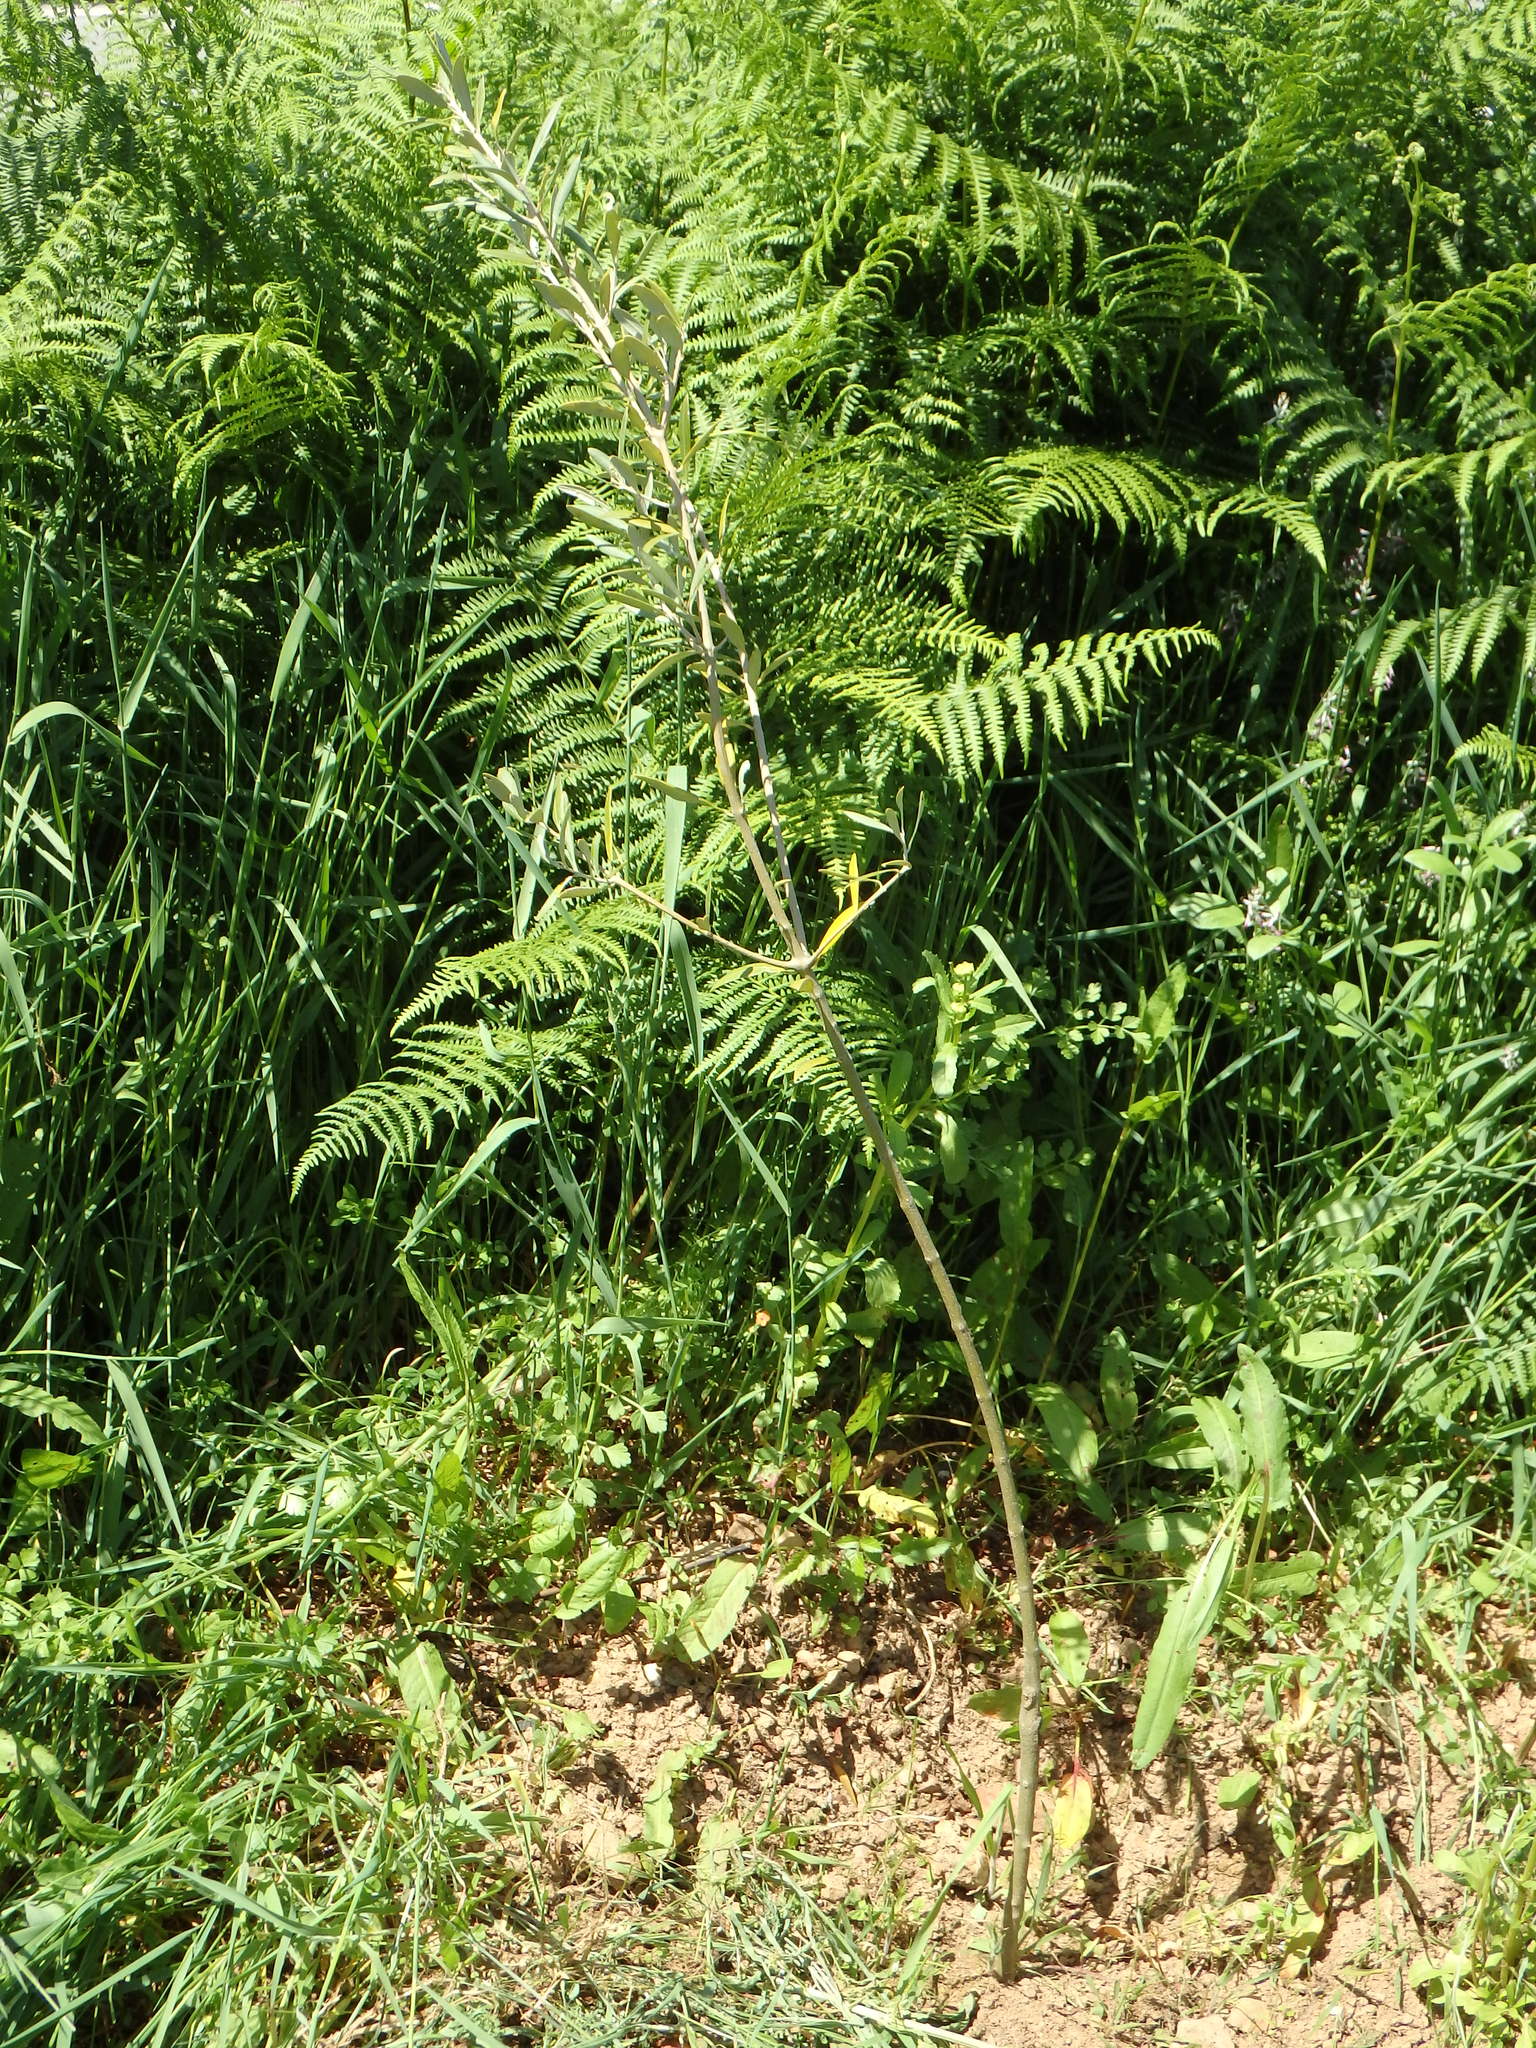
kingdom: Plantae
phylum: Tracheophyta
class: Polypodiopsida
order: Polypodiales
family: Dennstaedtiaceae
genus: Pteridium
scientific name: Pteridium aquilinum
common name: Bracken
